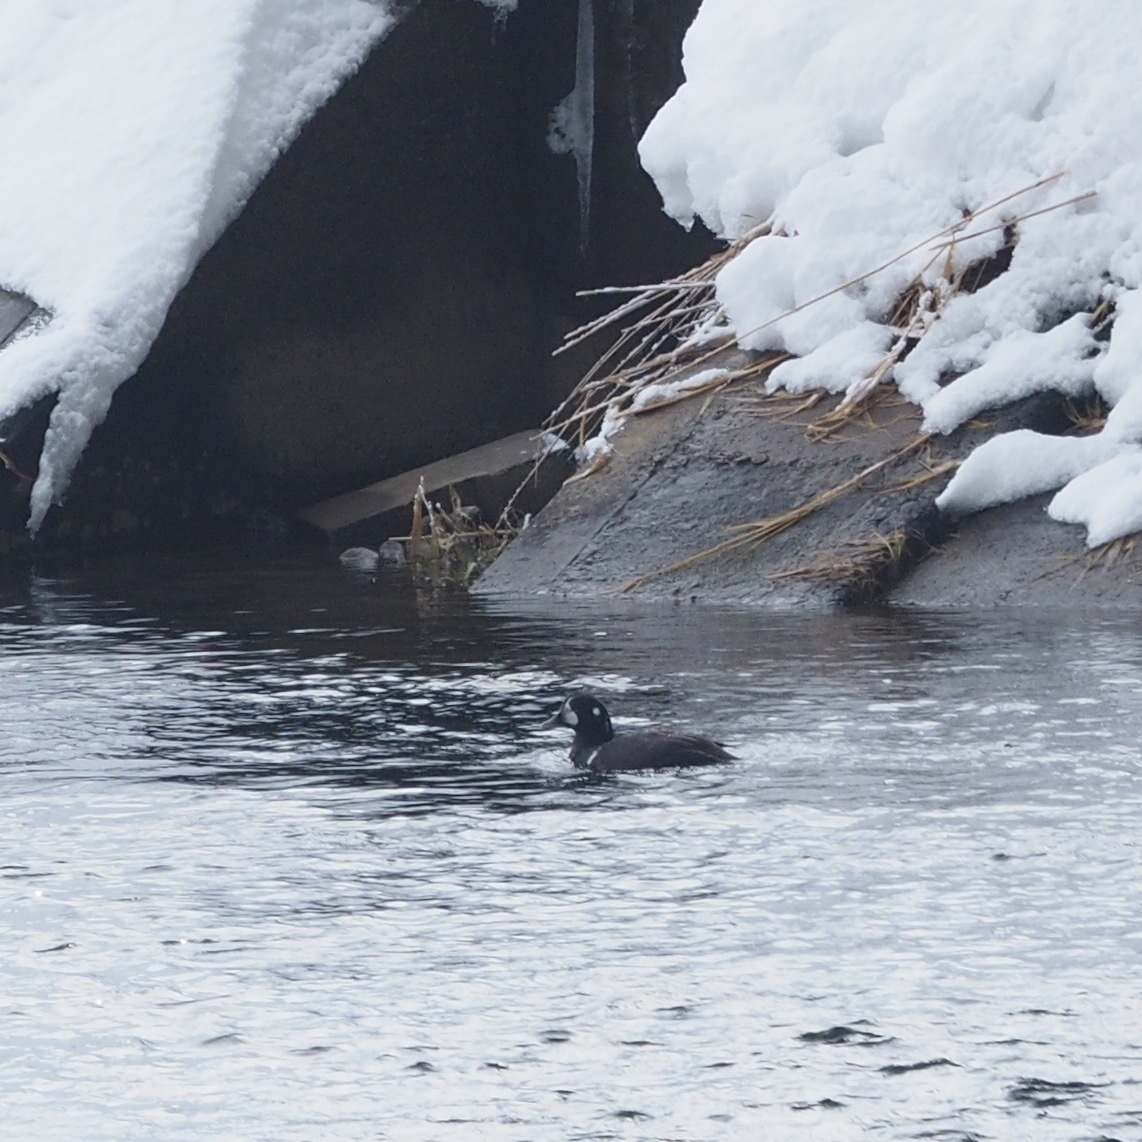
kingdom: Animalia
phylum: Chordata
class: Aves
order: Anseriformes
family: Anatidae
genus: Histrionicus
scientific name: Histrionicus histrionicus
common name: Harlequin duck
